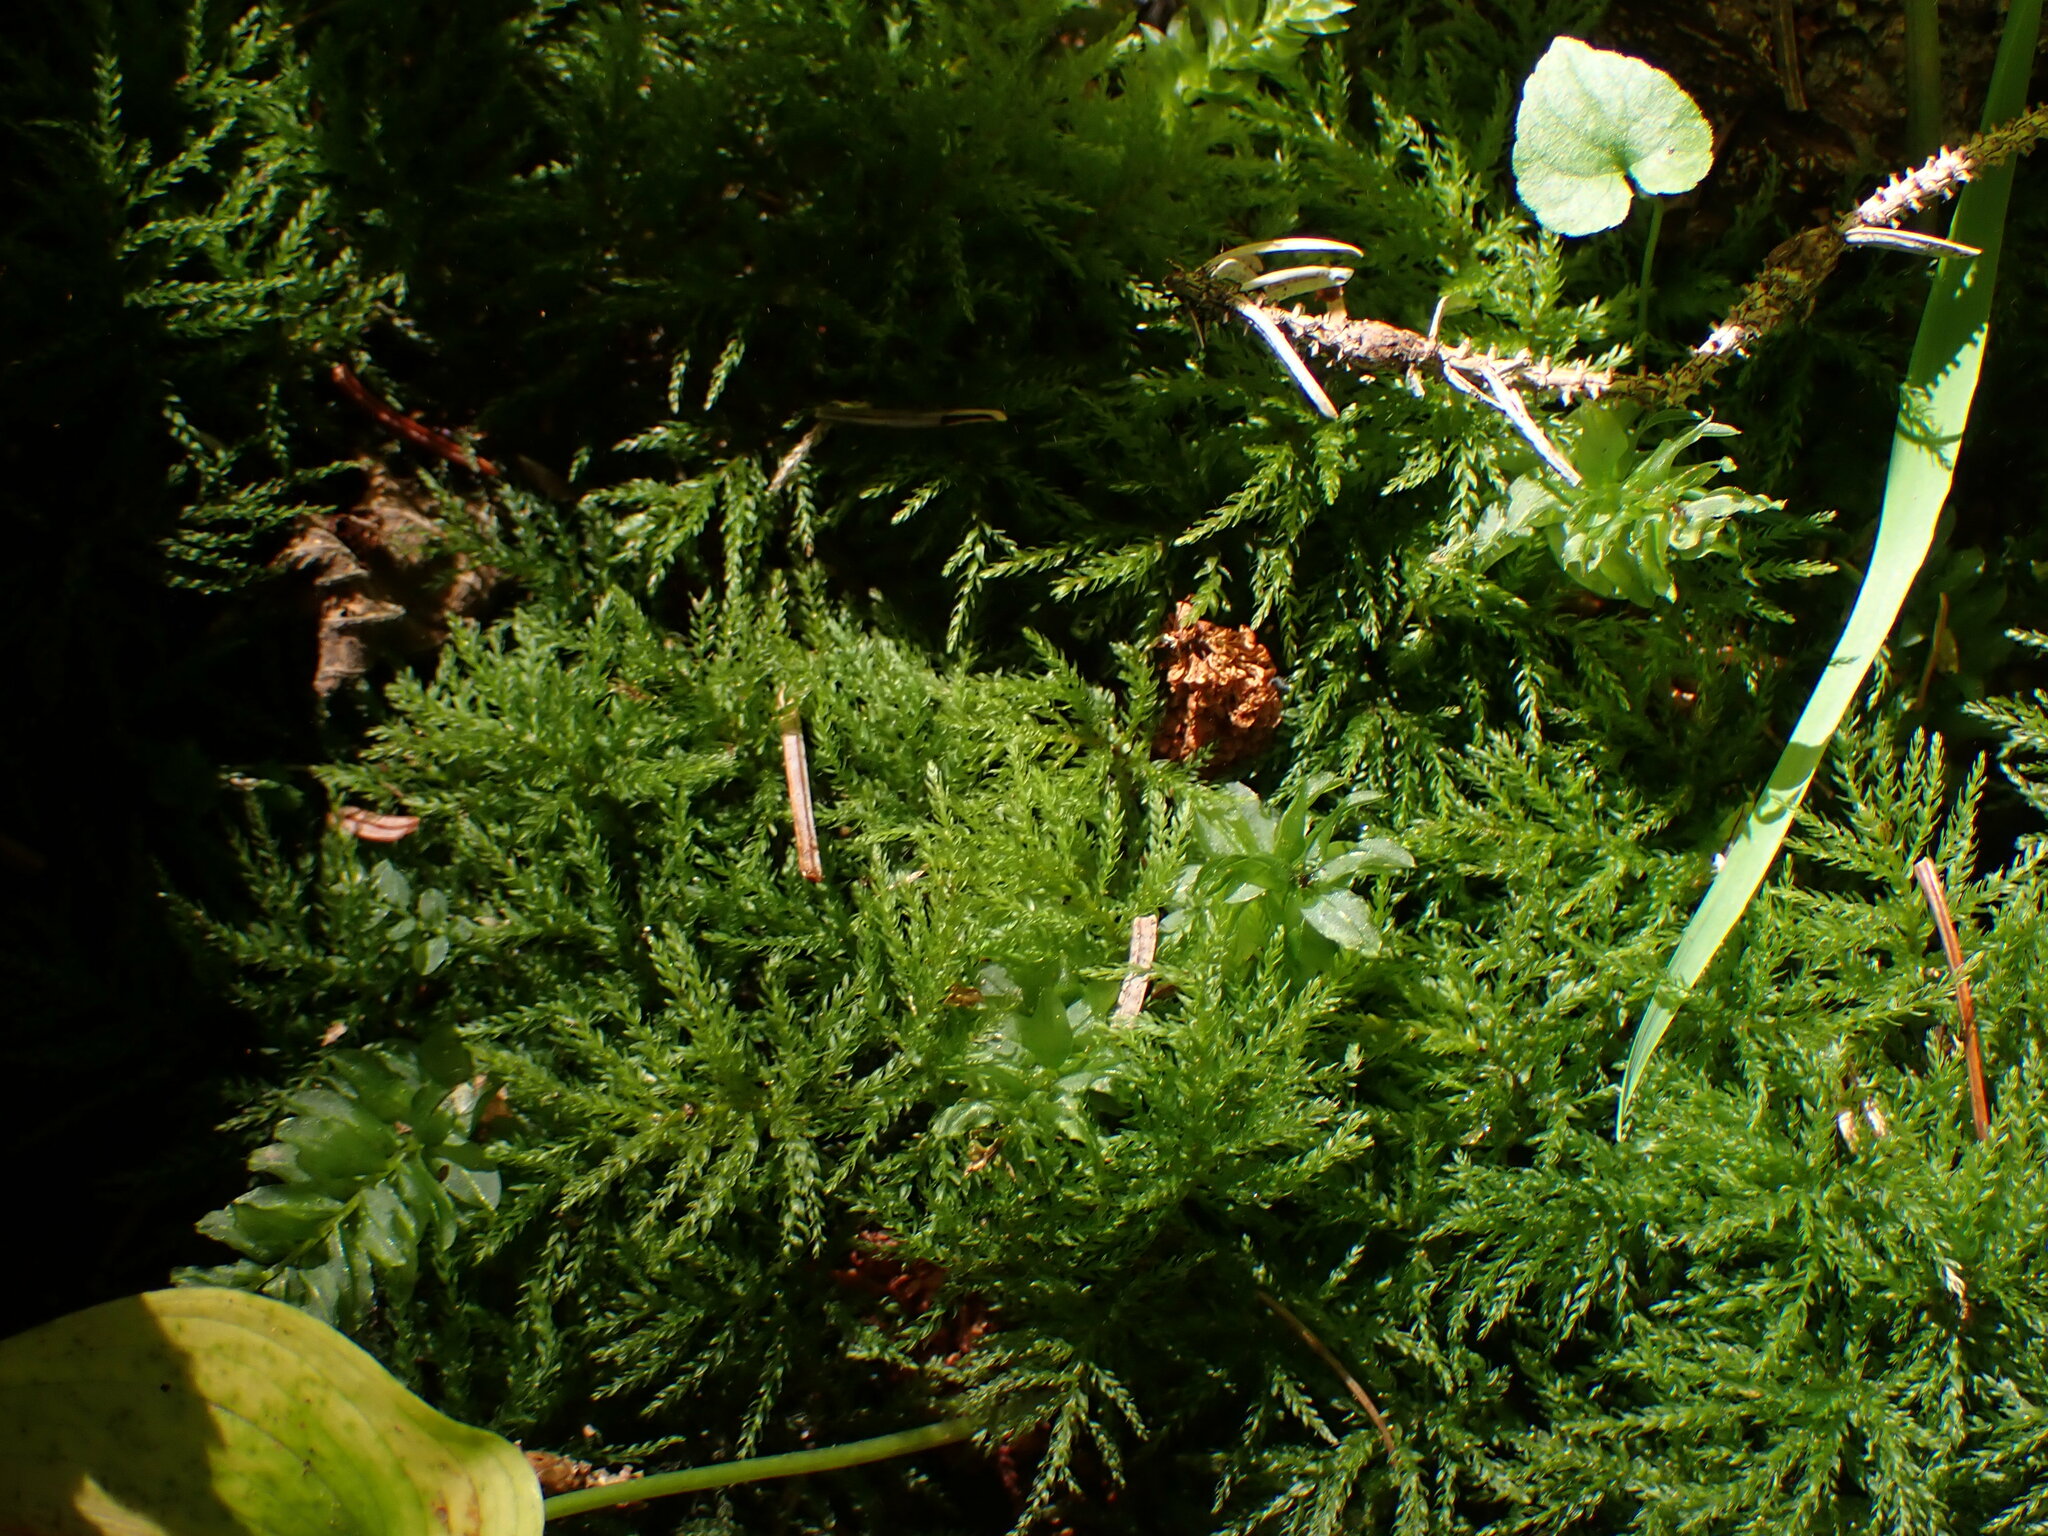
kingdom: Plantae
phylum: Bryophyta
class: Bryopsida
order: Bryales
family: Mniaceae
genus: Leucolepis
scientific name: Leucolepis acanthoneura
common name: Leucolepis umbrella moss
